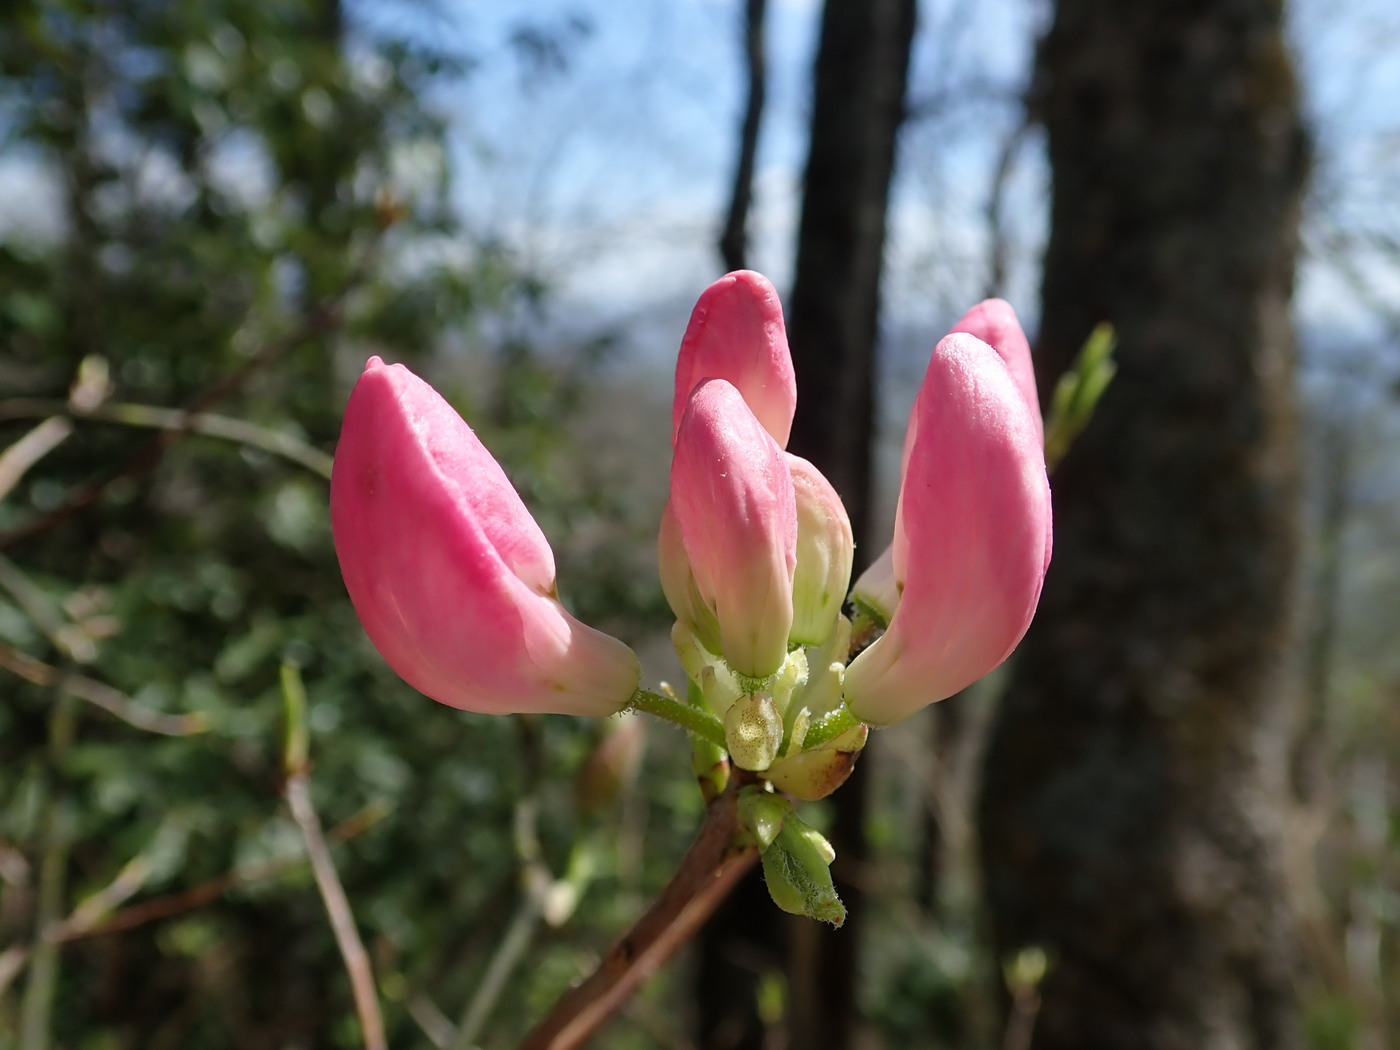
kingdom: Plantae
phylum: Tracheophyta
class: Magnoliopsida
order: Ericales
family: Ericaceae
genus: Rhododendron
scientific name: Rhododendron vaseyi
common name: Pink-shell azalea
